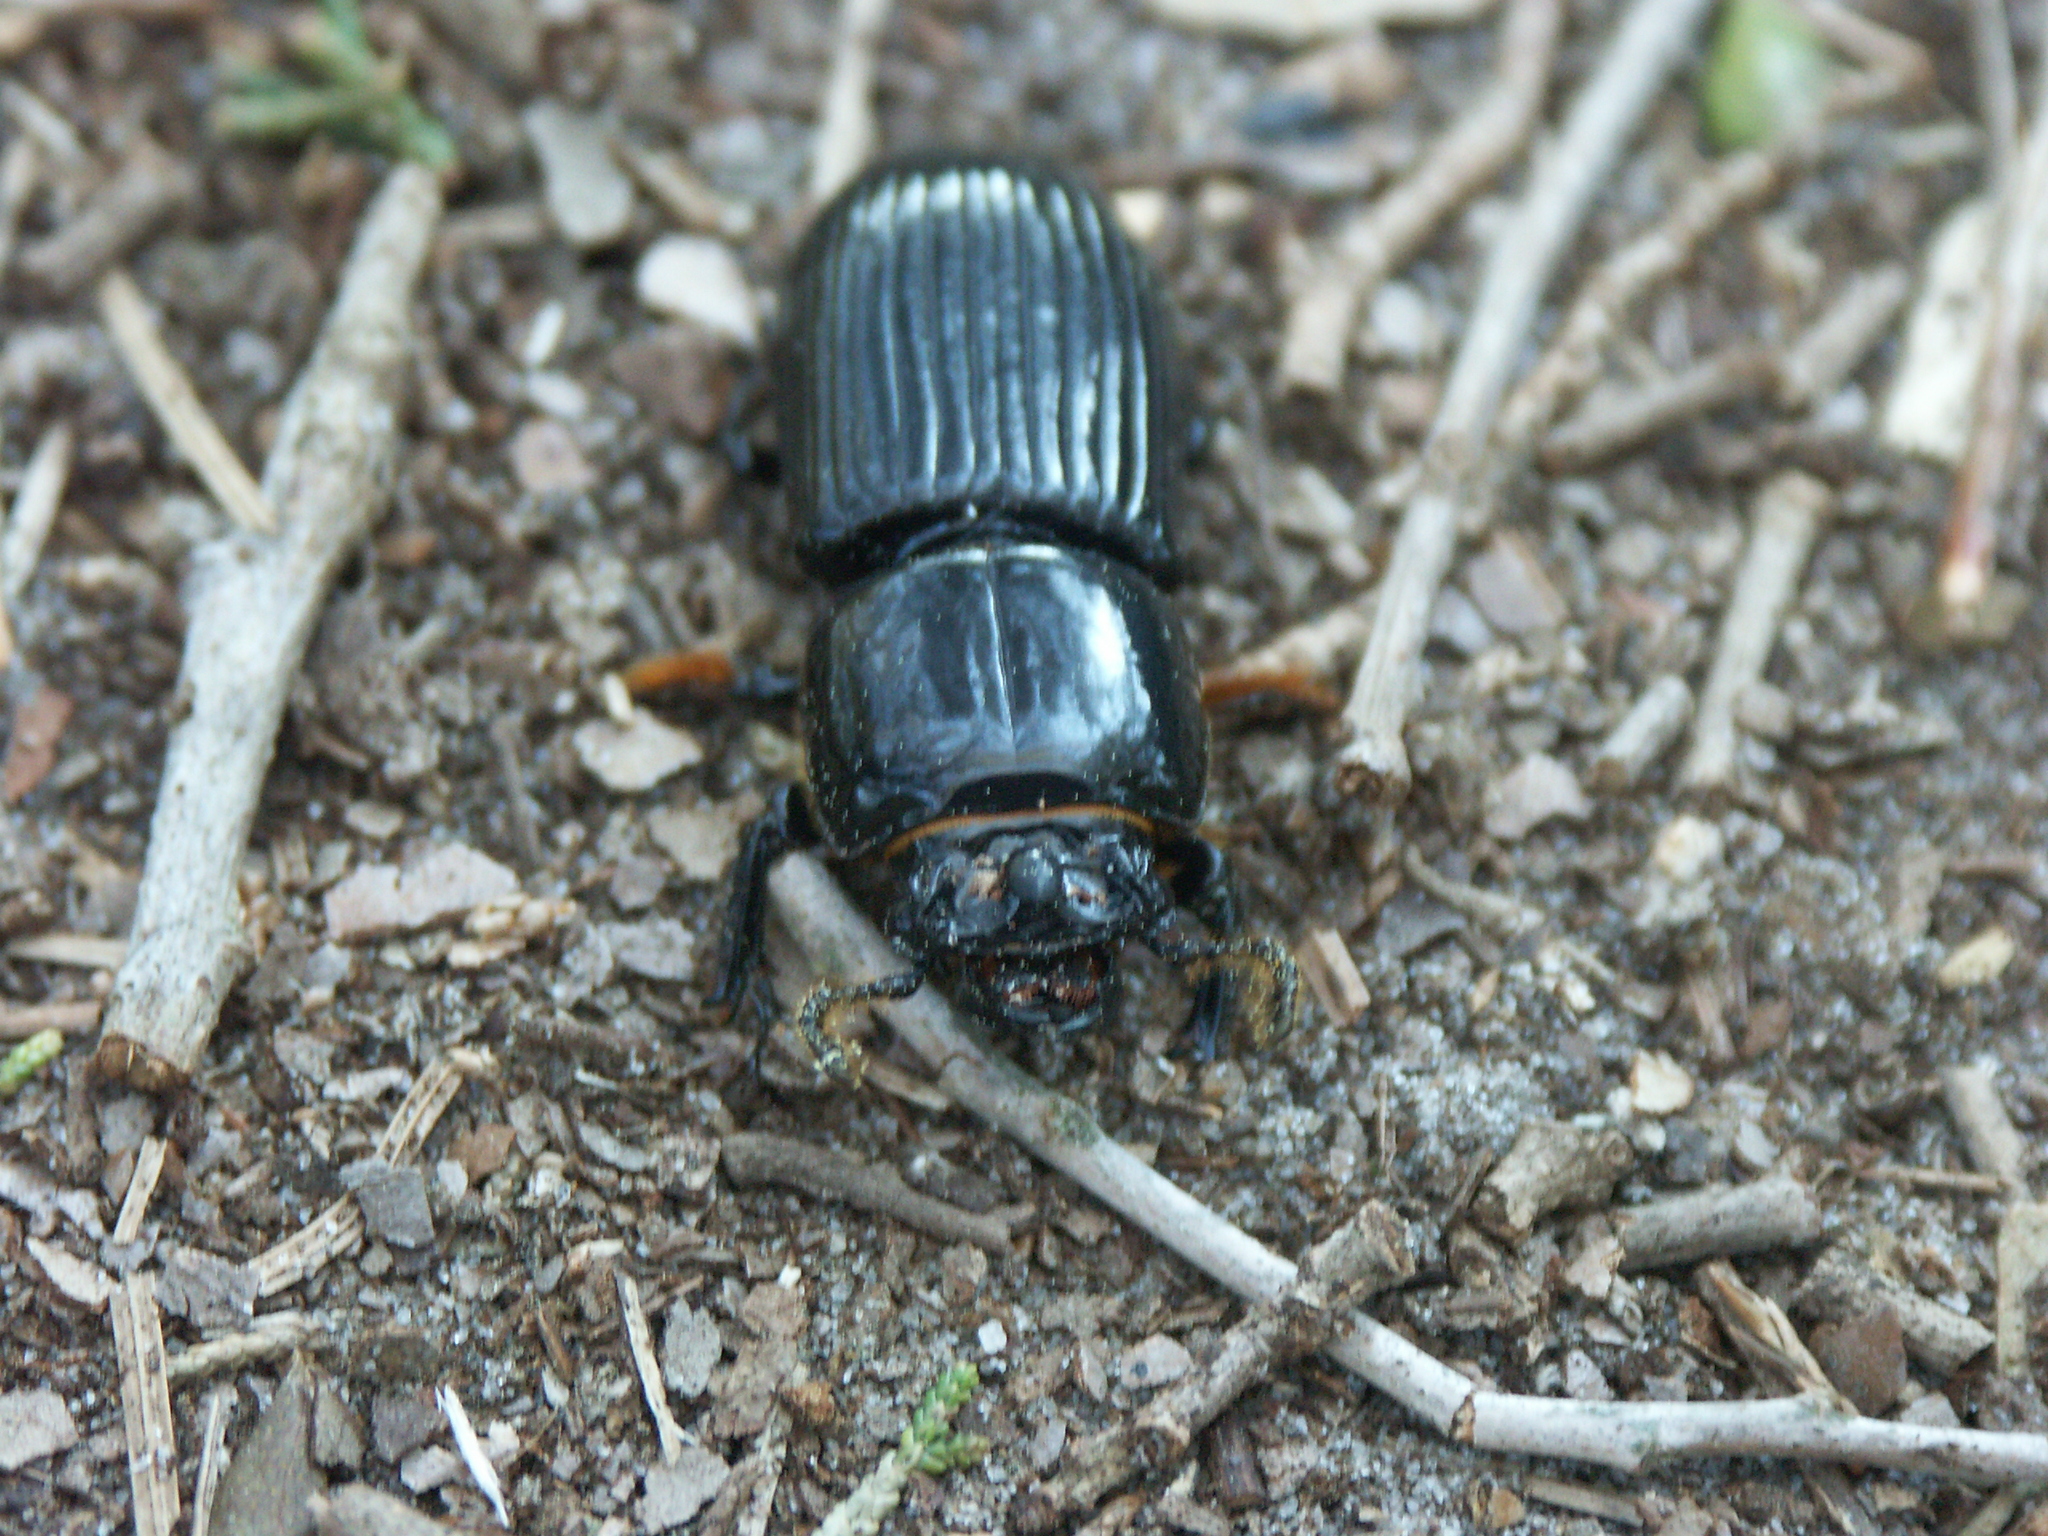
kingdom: Animalia
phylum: Arthropoda
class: Insecta
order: Coleoptera
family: Passalidae
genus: Odontotaenius
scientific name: Odontotaenius disjunctus
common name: Patent leather beetle
